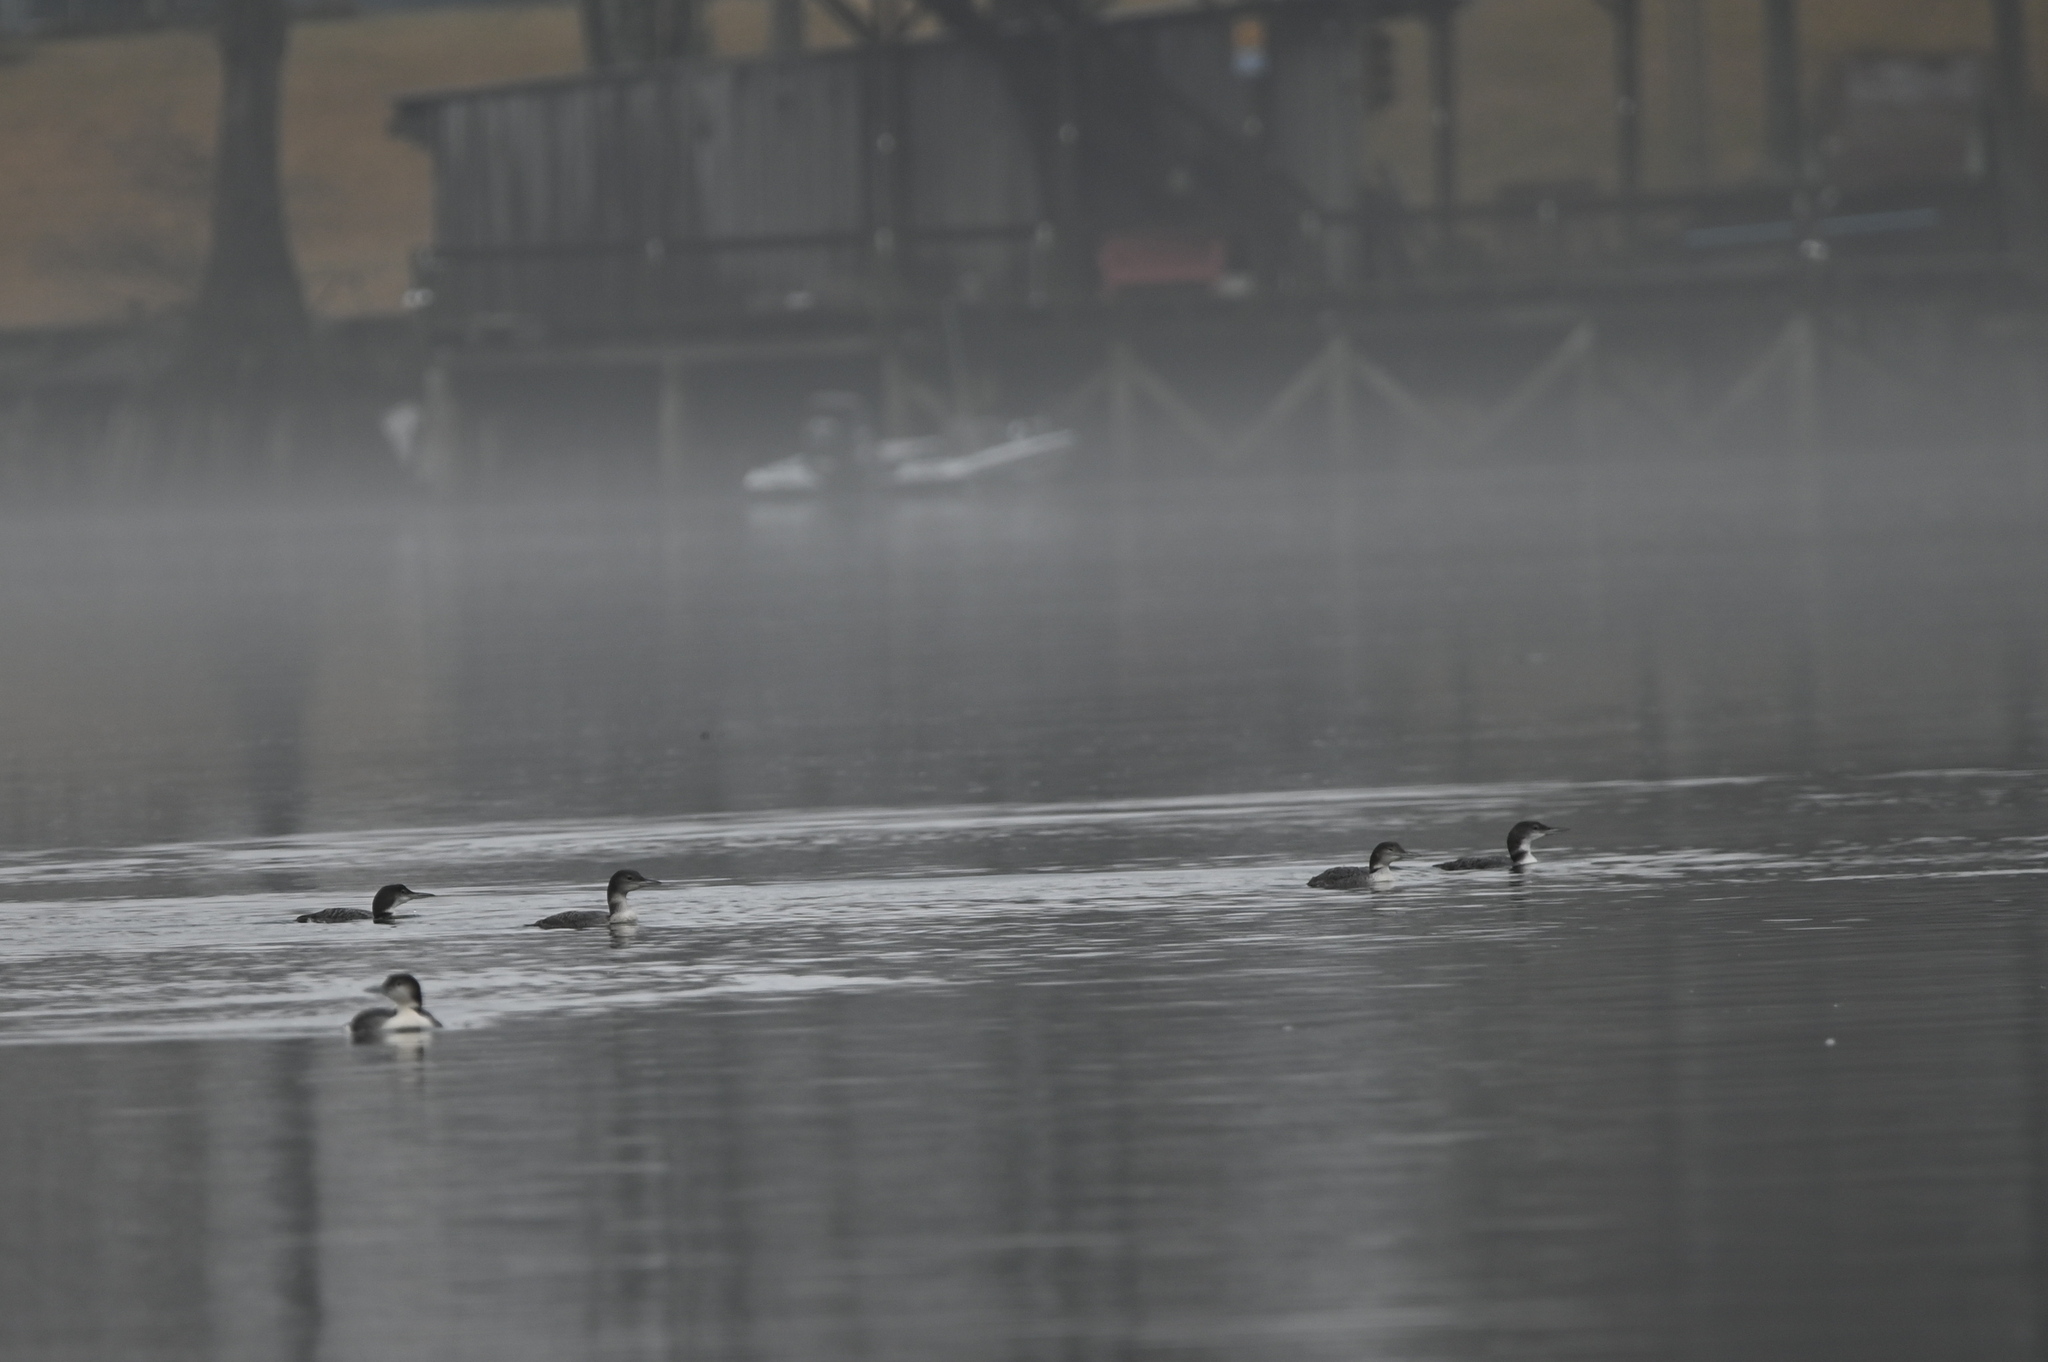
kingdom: Animalia
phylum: Chordata
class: Aves
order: Gaviiformes
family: Gaviidae
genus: Gavia
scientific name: Gavia immer
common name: Common loon
